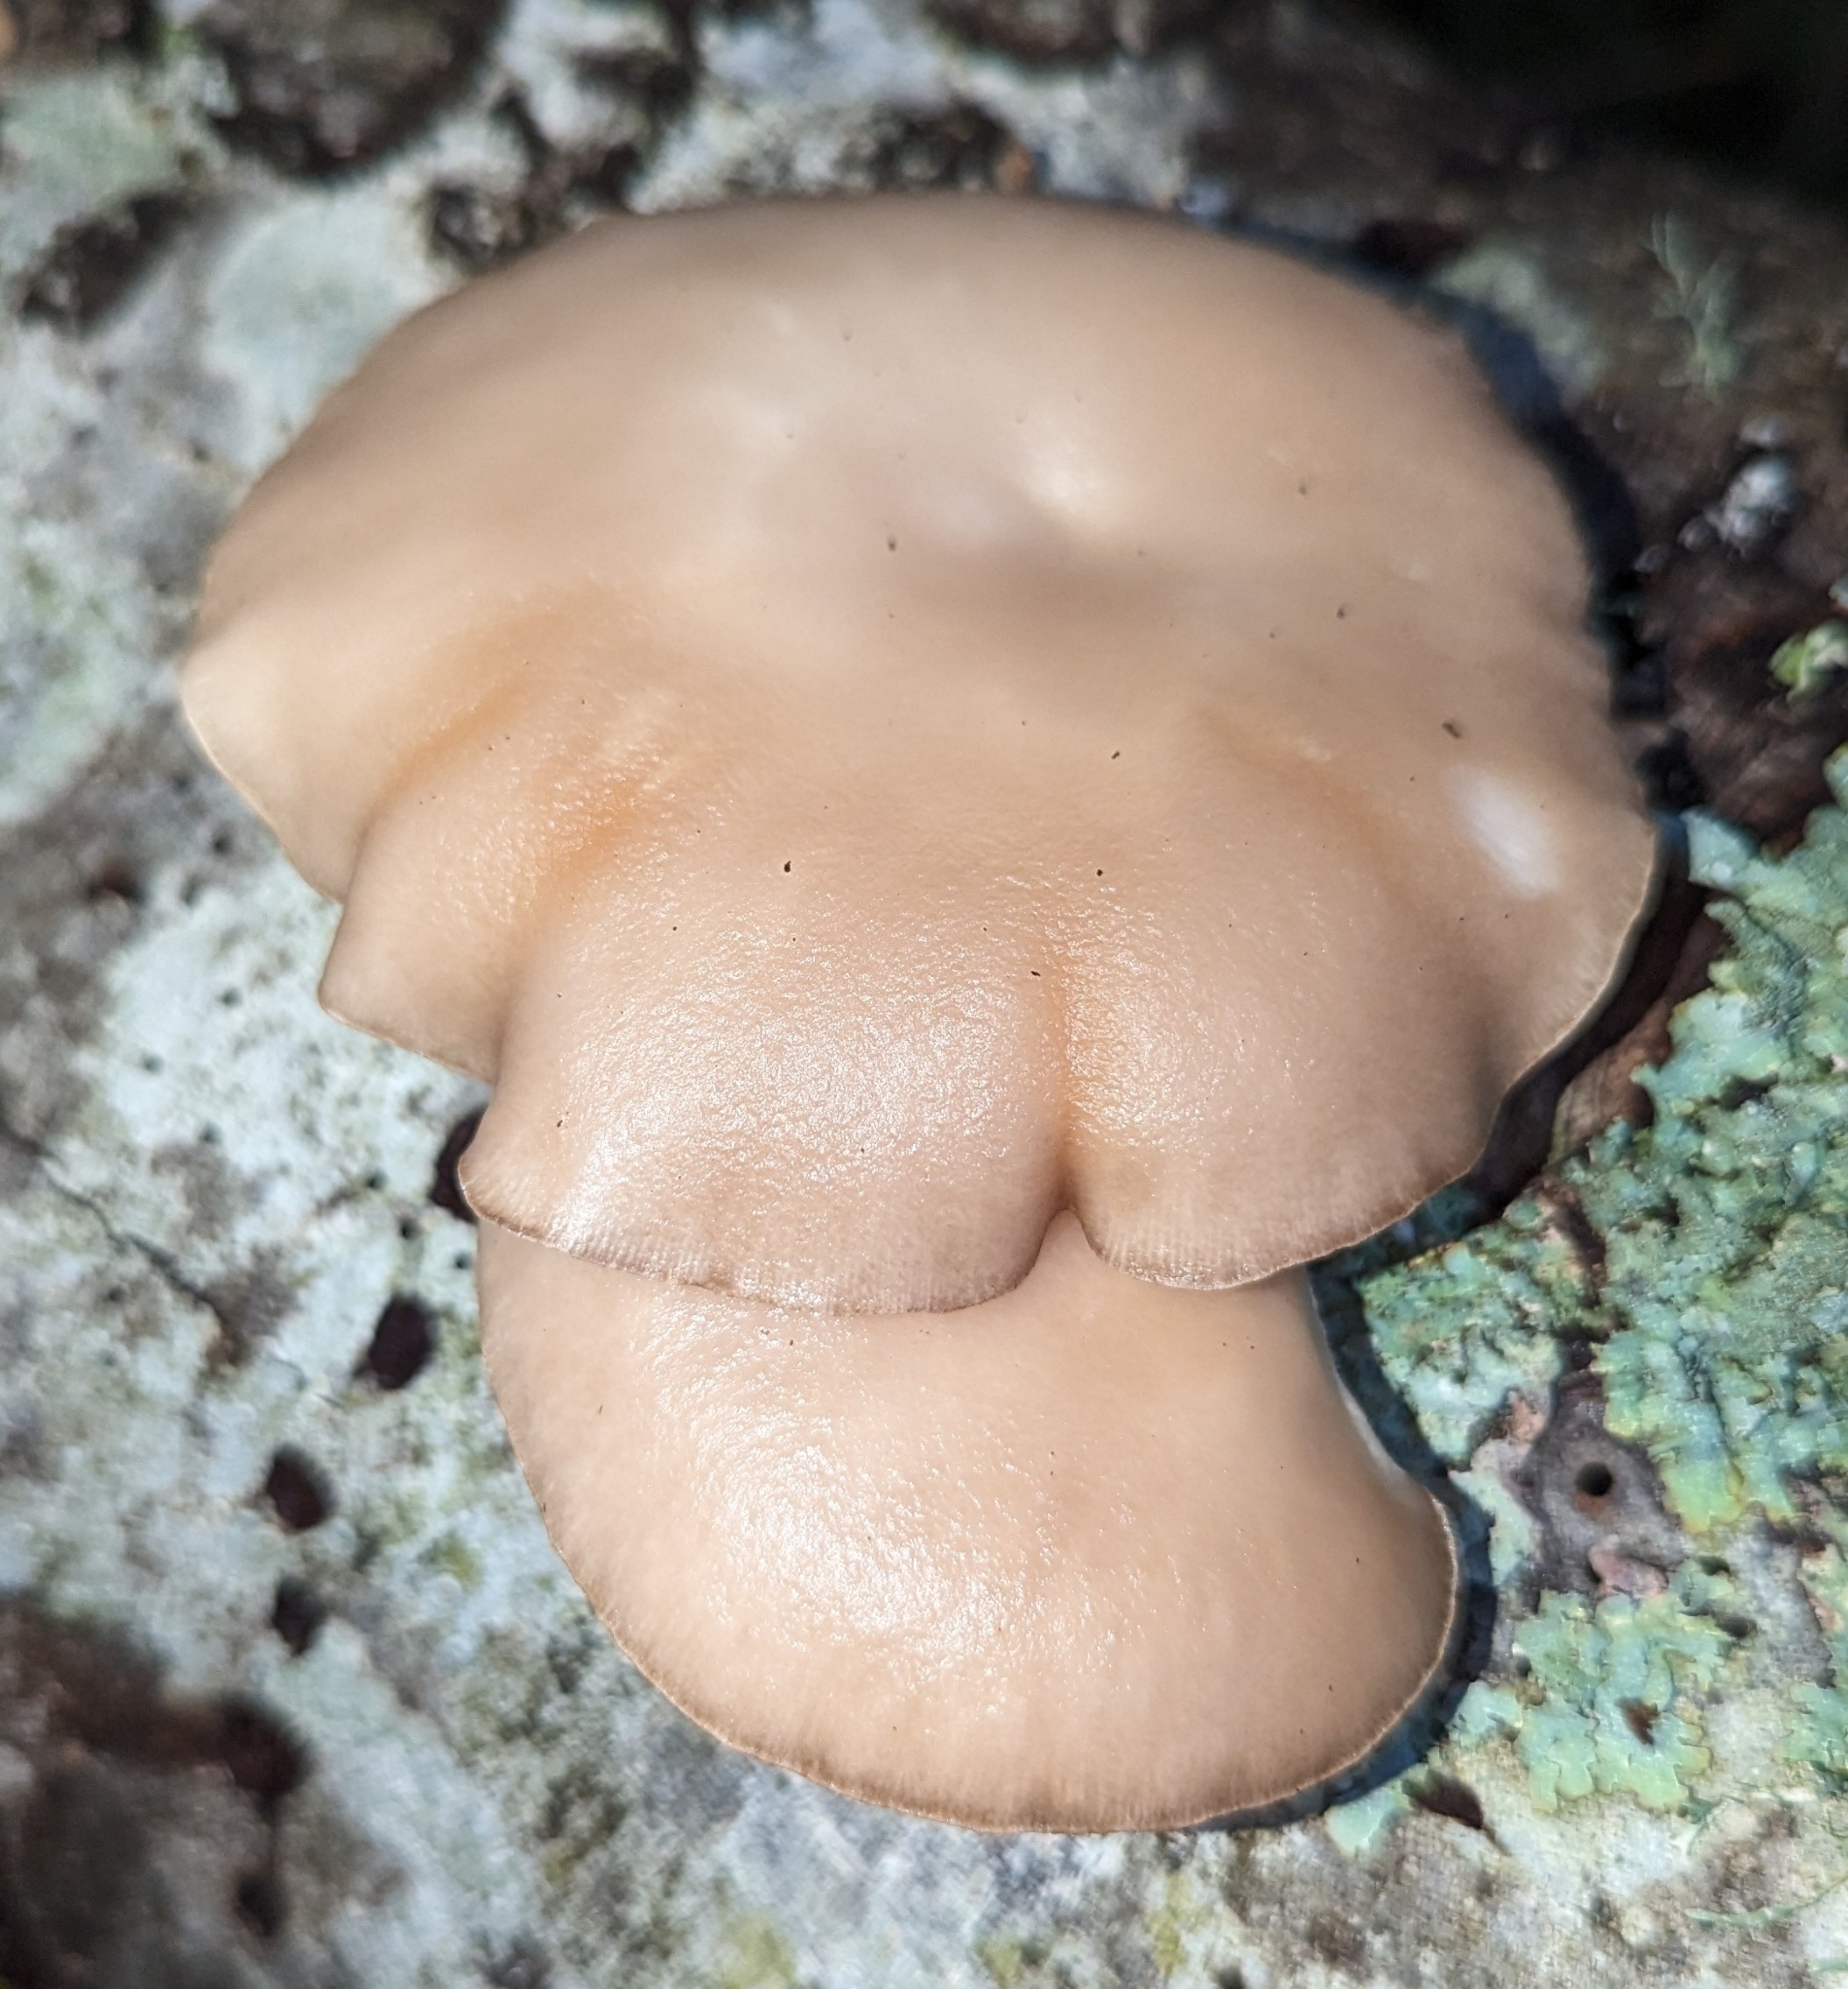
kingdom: Fungi
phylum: Basidiomycota
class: Agaricomycetes
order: Agaricales
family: Pleurotaceae
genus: Pleurotus
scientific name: Pleurotus ostreatus
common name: Oyster mushroom
